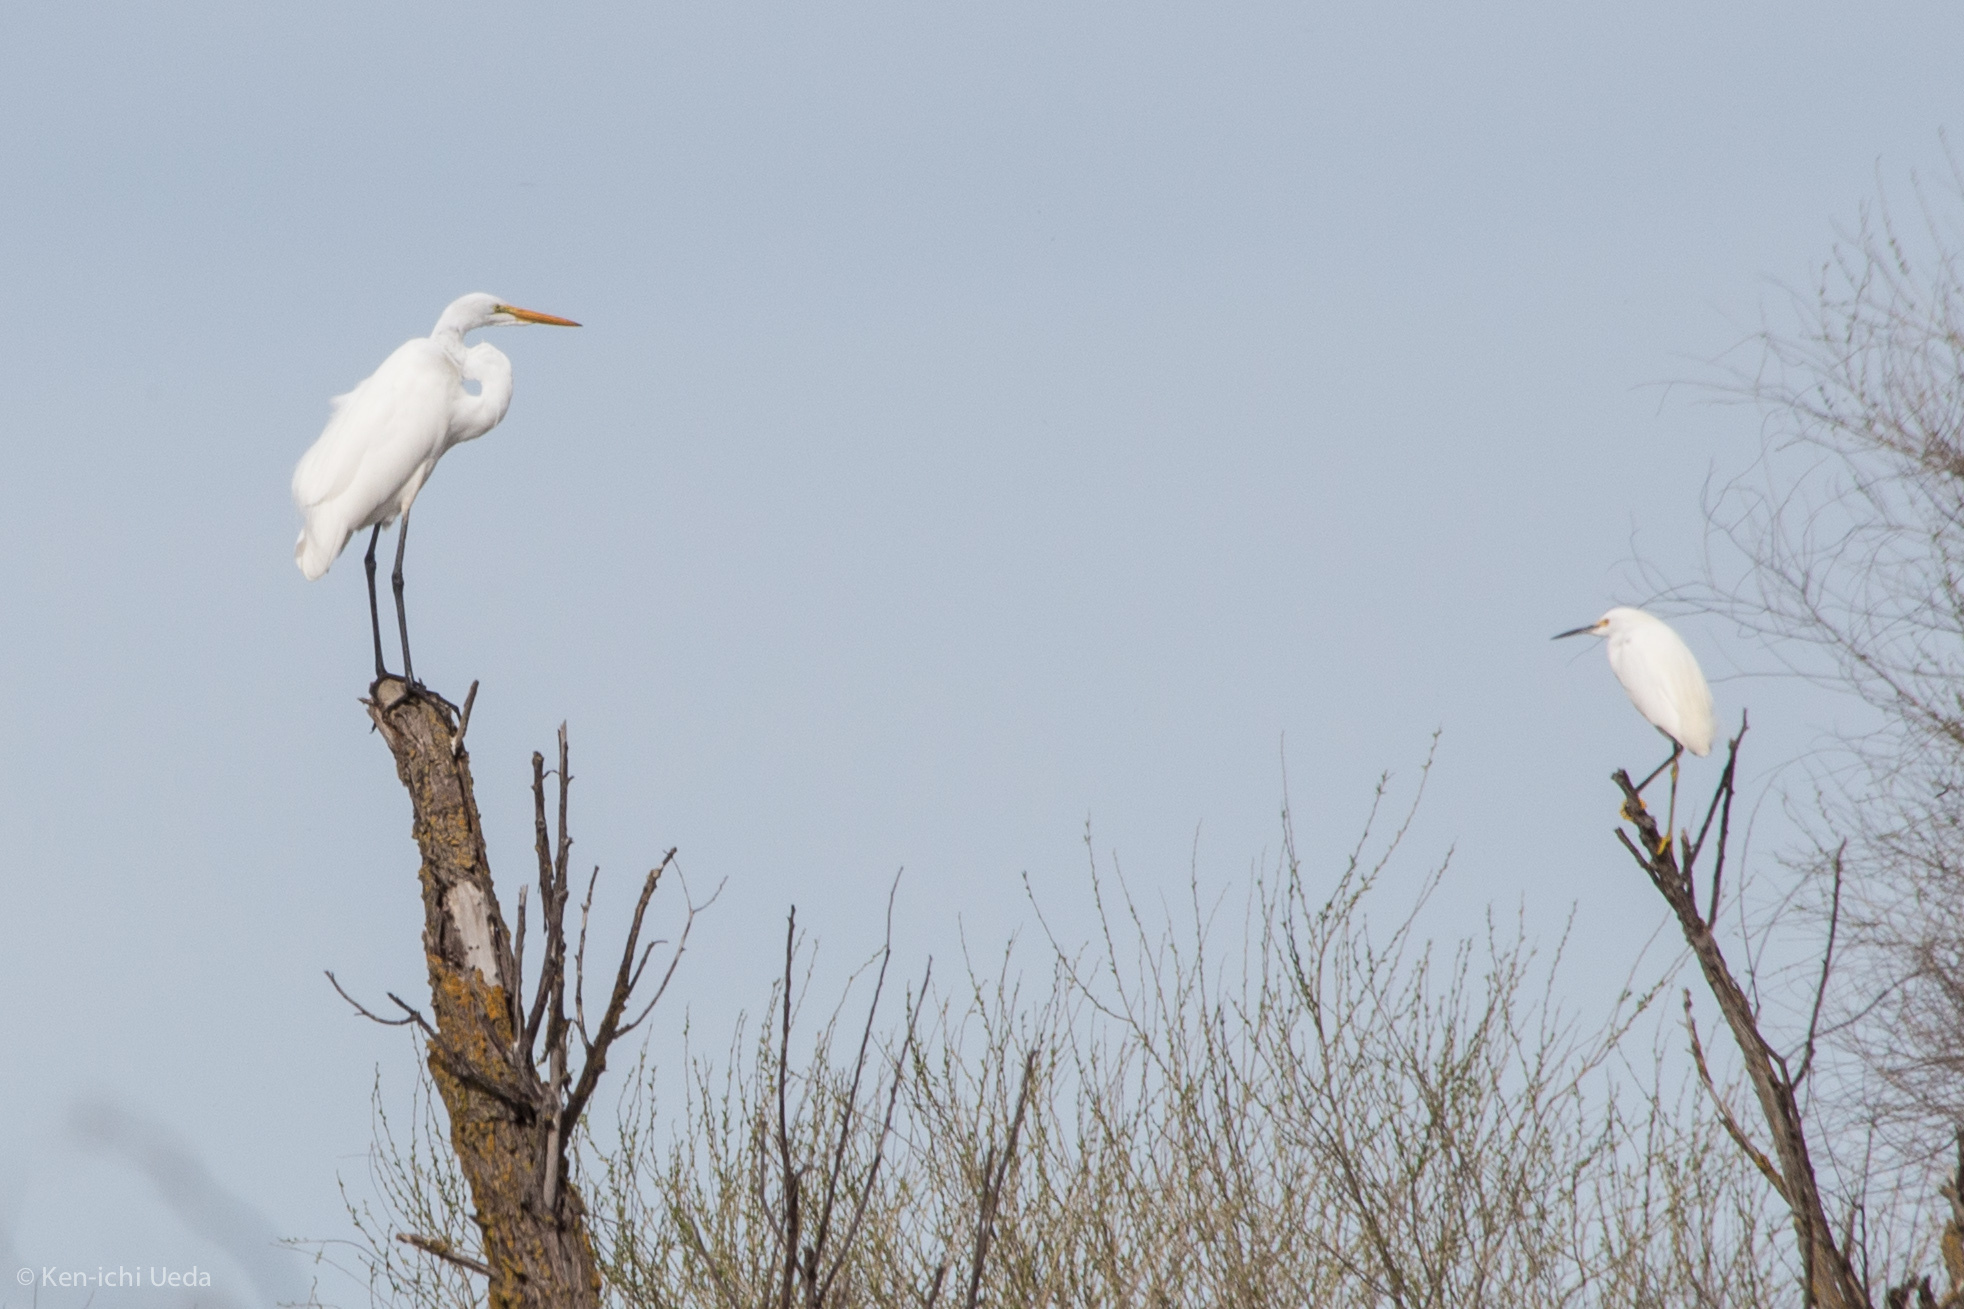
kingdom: Animalia
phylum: Chordata
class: Aves
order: Pelecaniformes
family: Ardeidae
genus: Egretta
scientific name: Egretta thula
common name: Snowy egret
